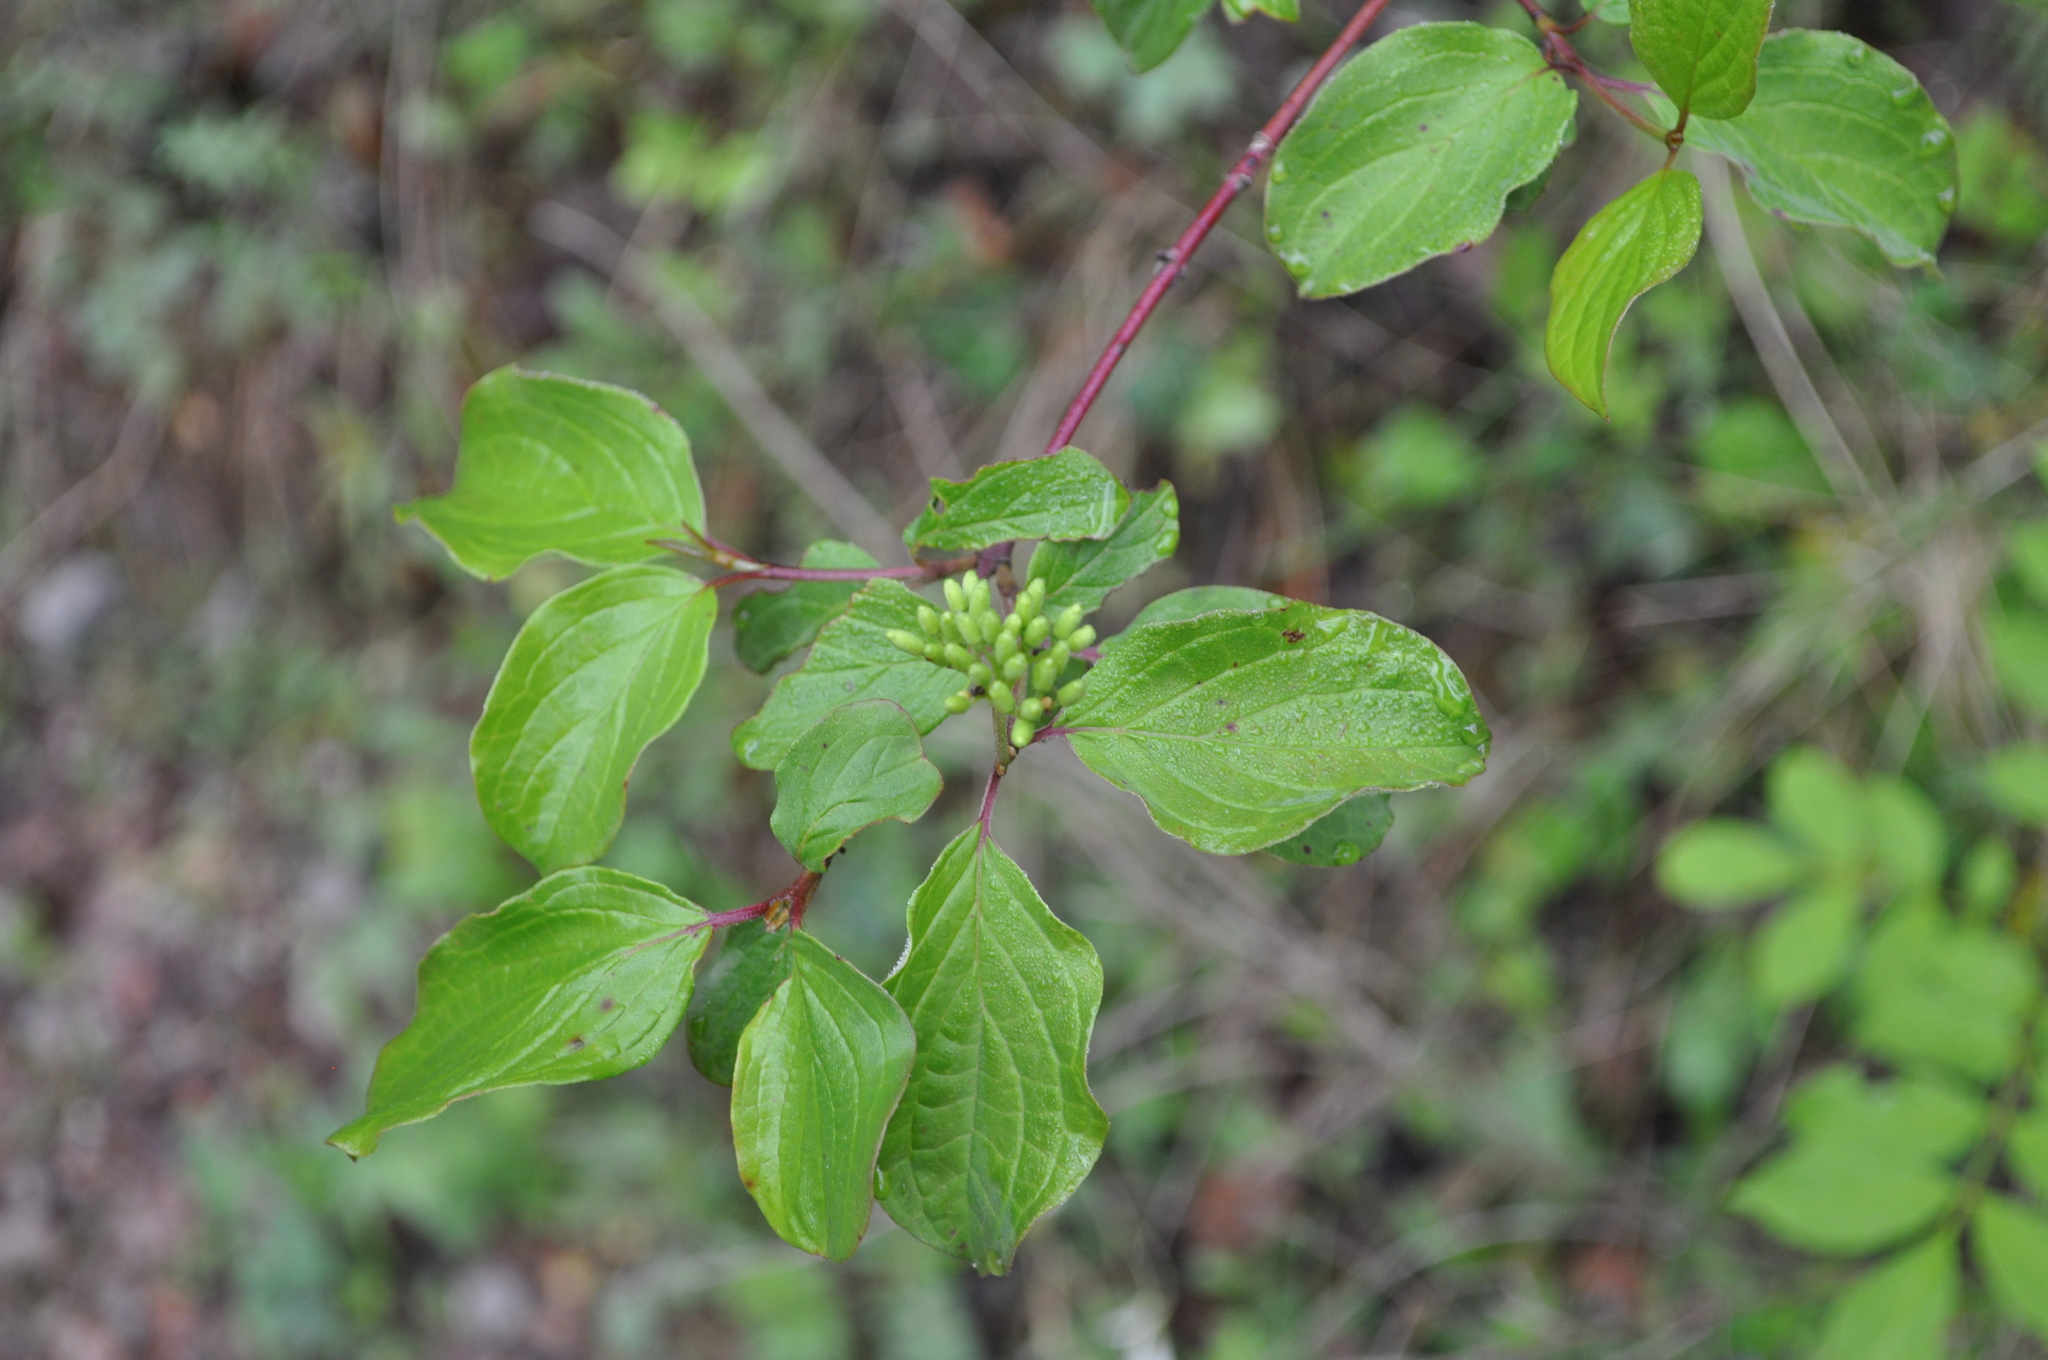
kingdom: Plantae
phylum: Tracheophyta
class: Magnoliopsida
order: Cornales
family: Cornaceae
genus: Cornus
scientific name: Cornus sanguinea
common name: Dogwood
